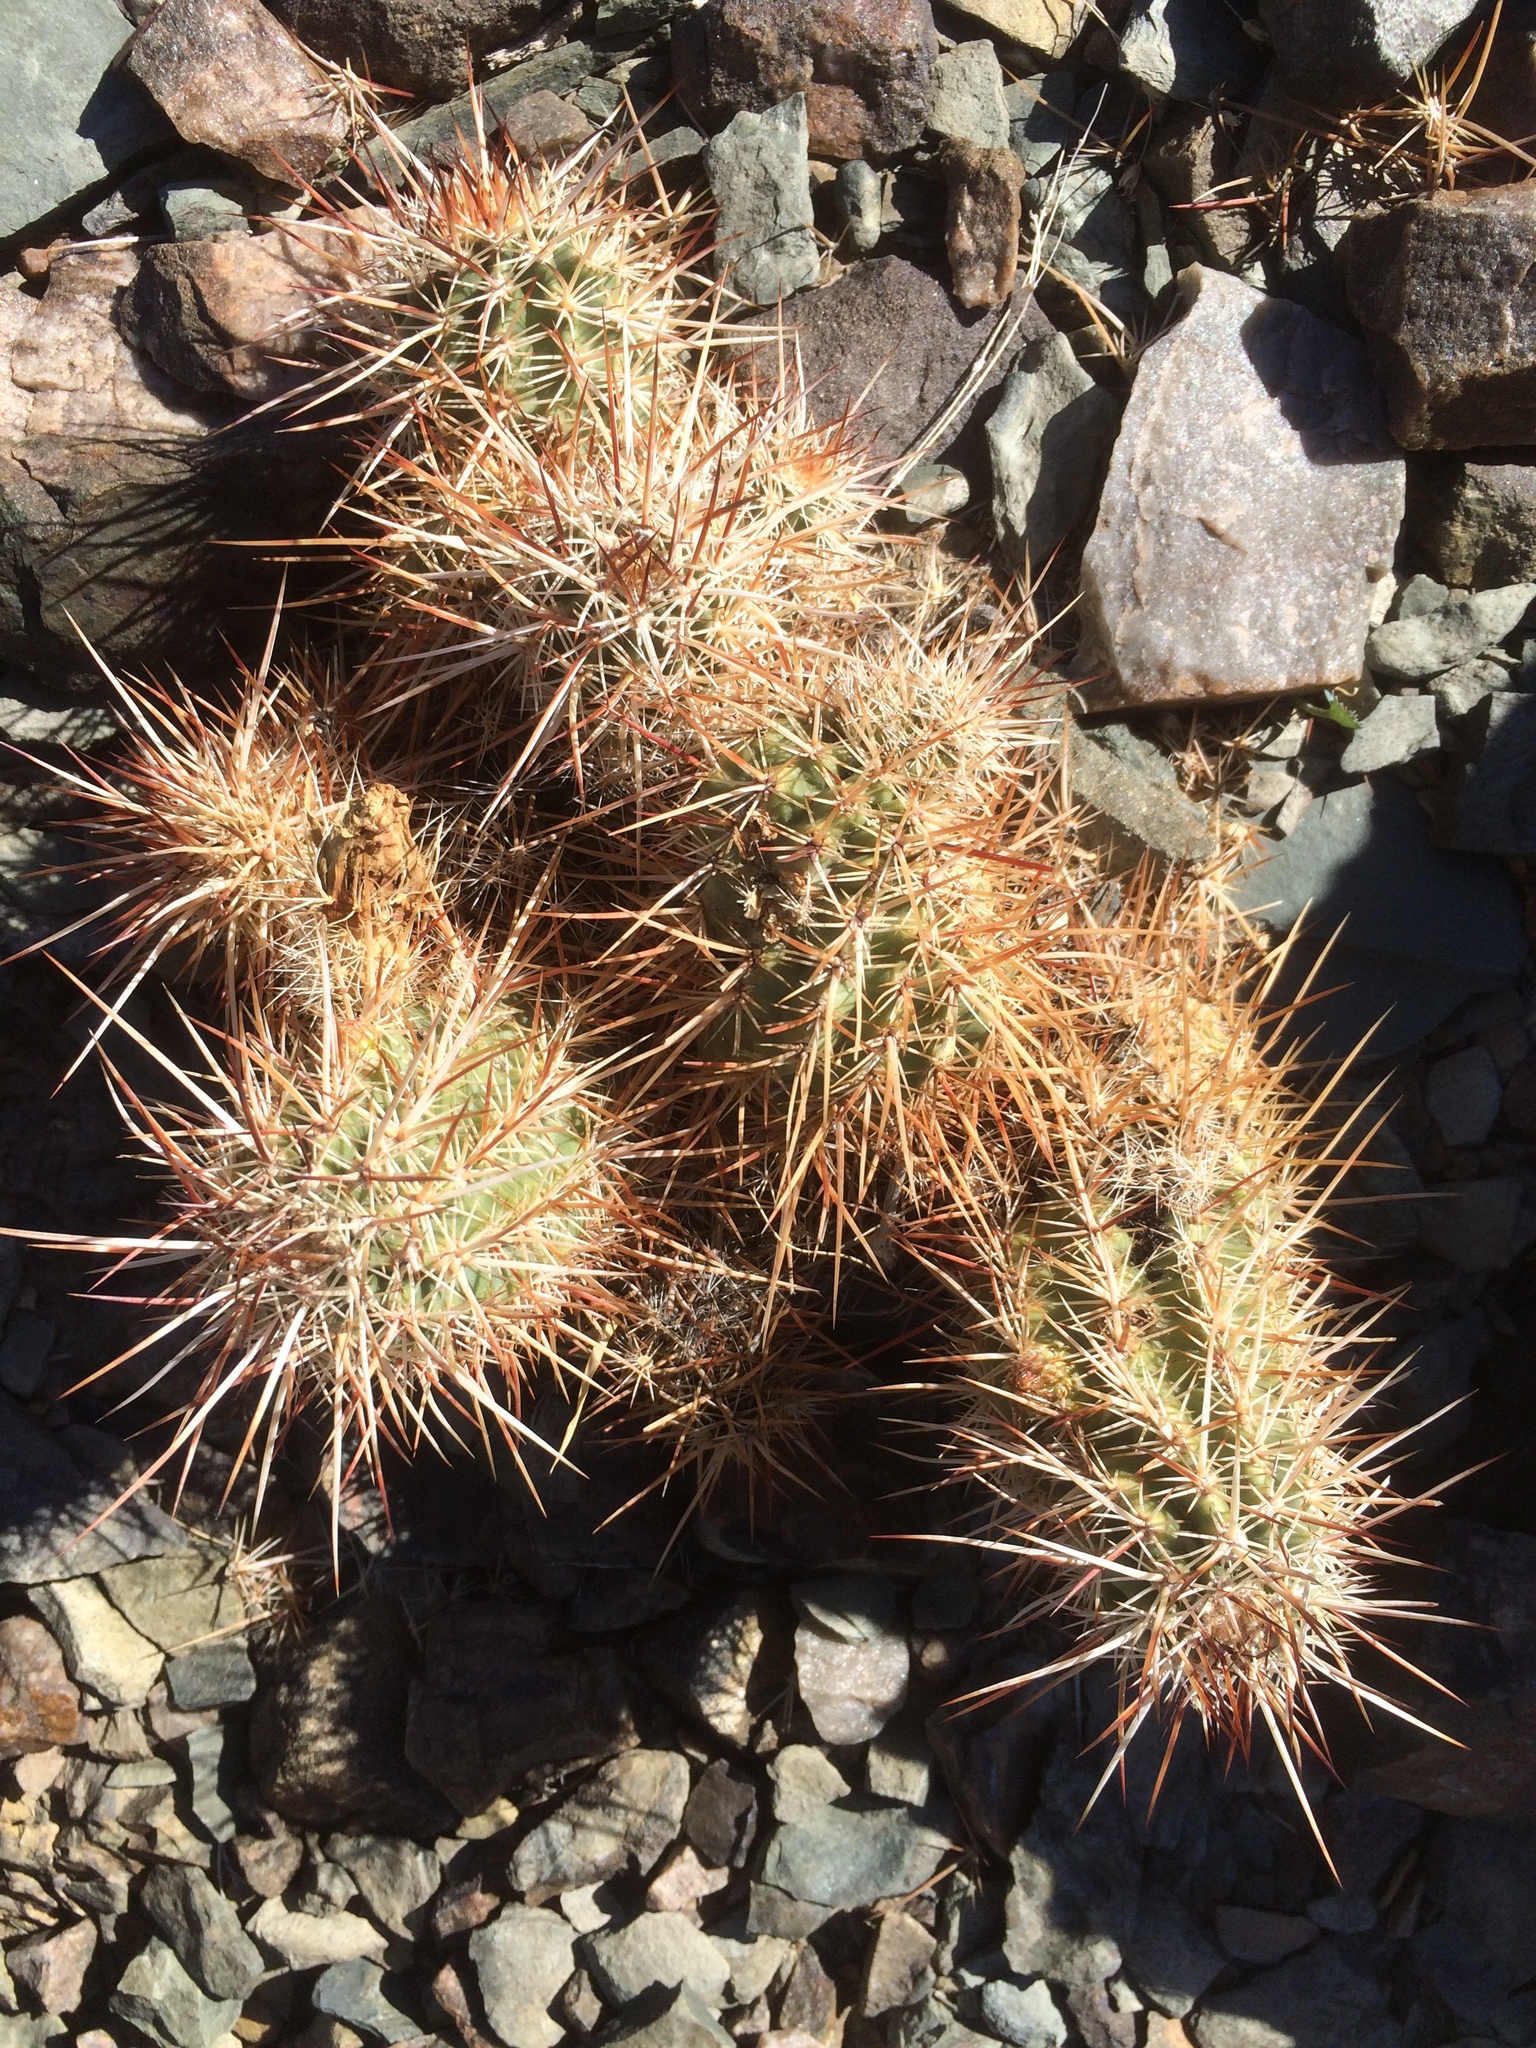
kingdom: Plantae
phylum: Tracheophyta
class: Magnoliopsida
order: Caryophyllales
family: Cactaceae
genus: Echinocereus
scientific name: Echinocereus engelmannii
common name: Engelmann's hedgehog cactus
